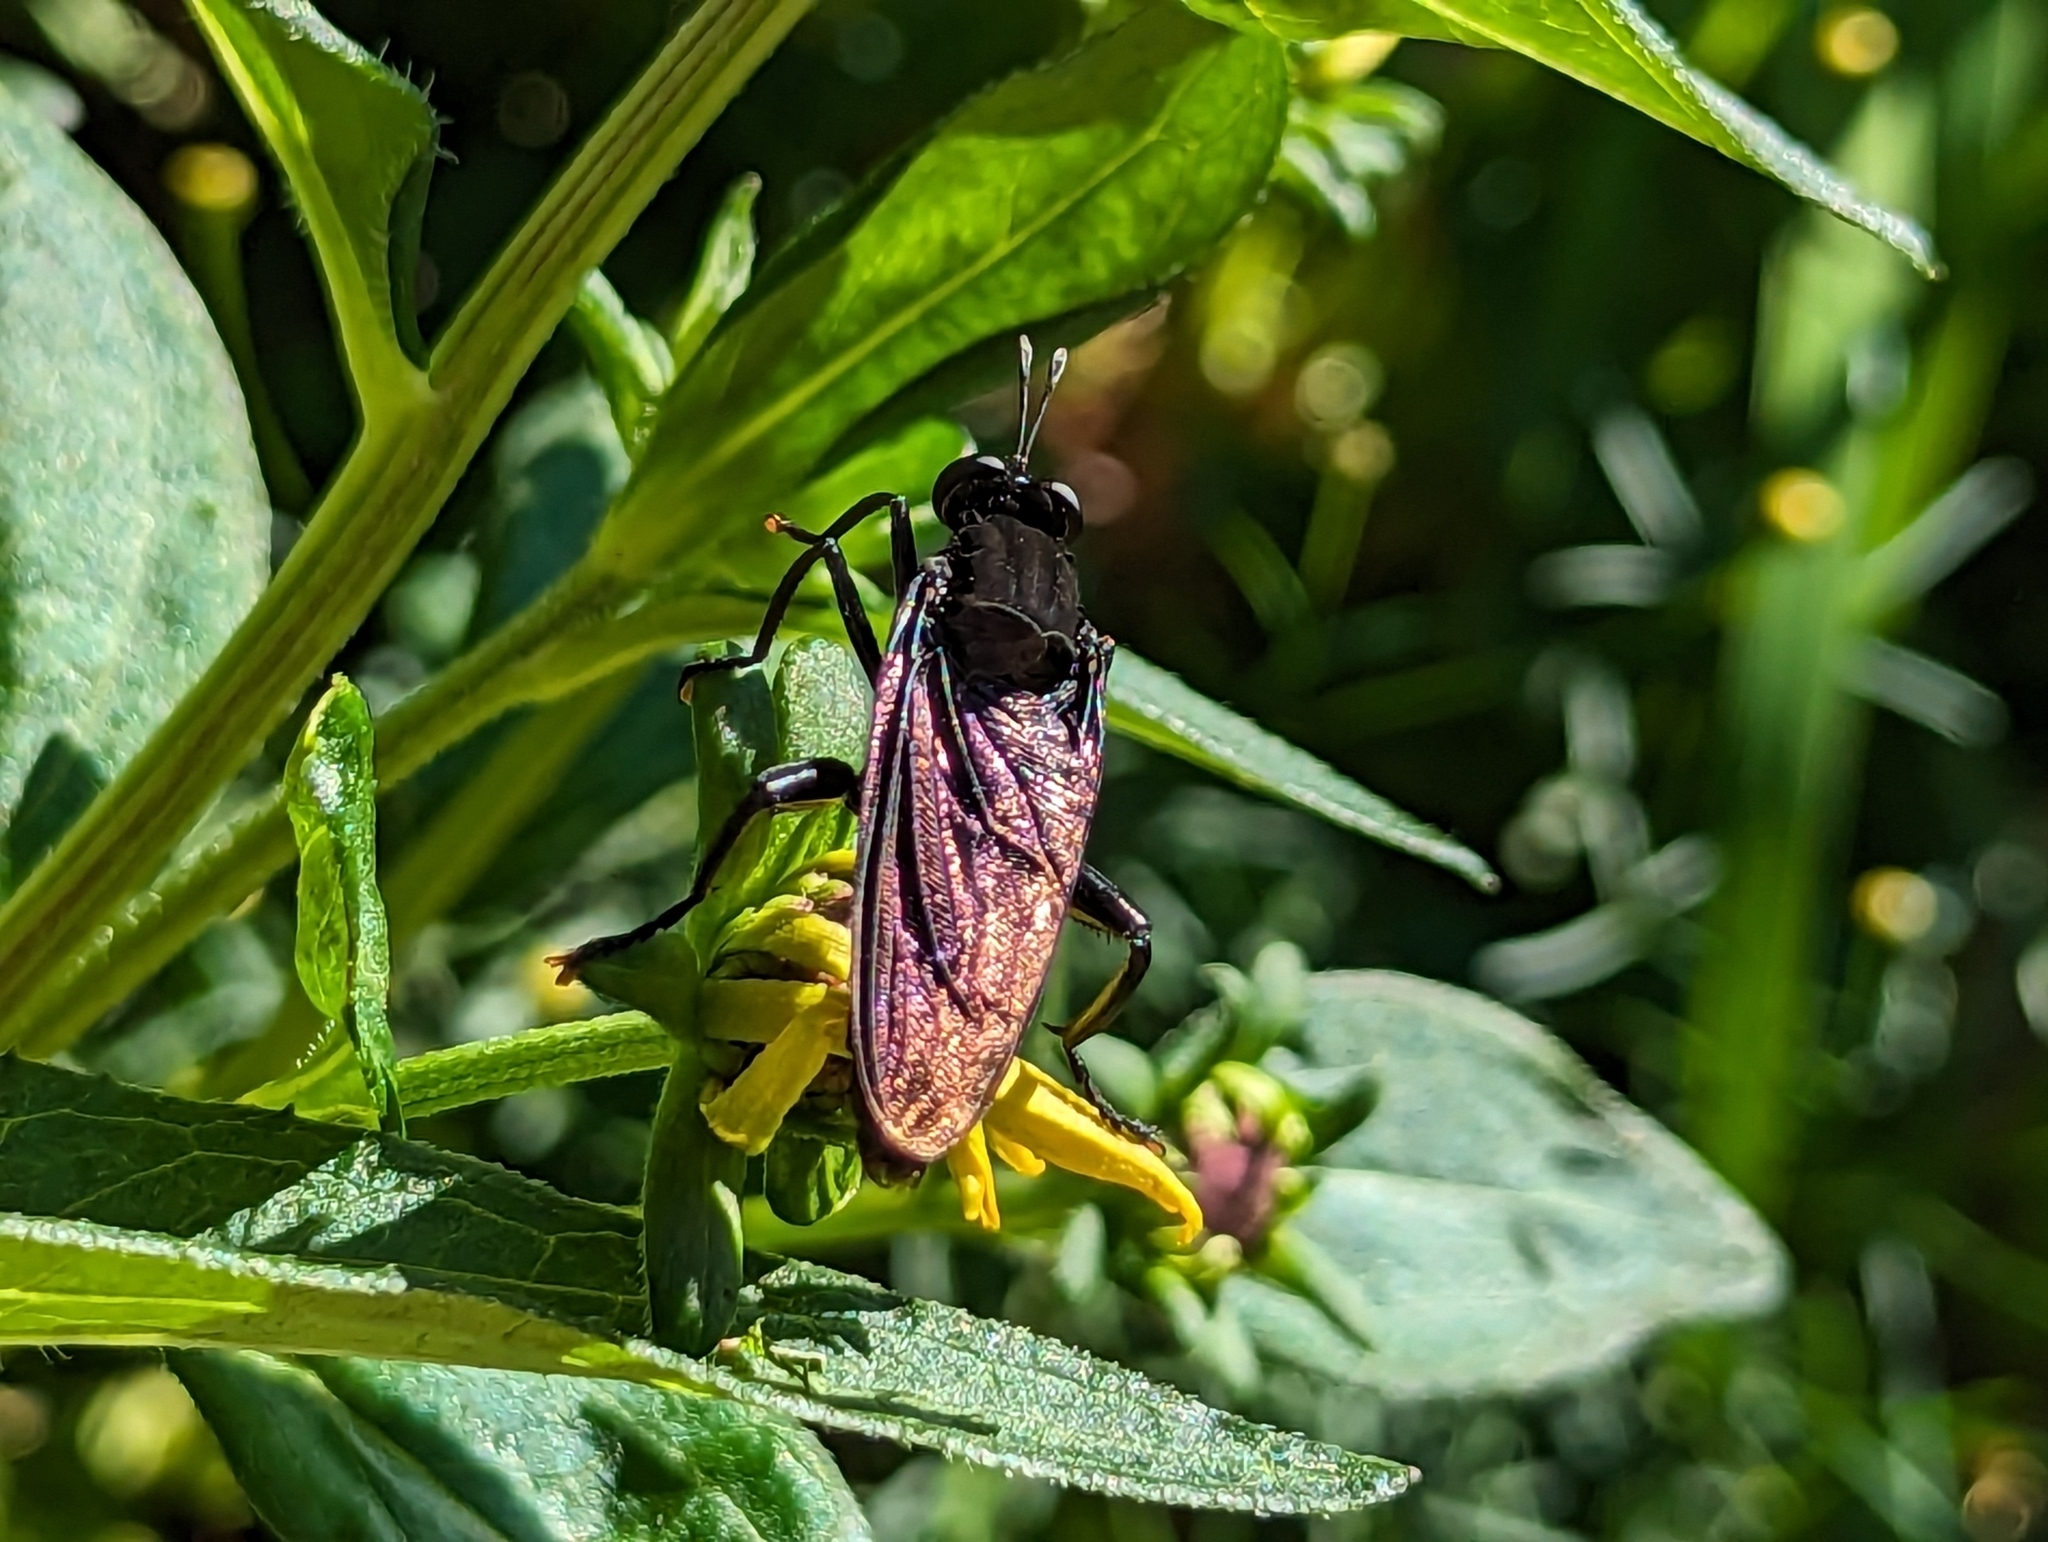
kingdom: Animalia
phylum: Arthropoda
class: Insecta
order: Diptera
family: Mydidae
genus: Mydas
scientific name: Mydas clavatus
